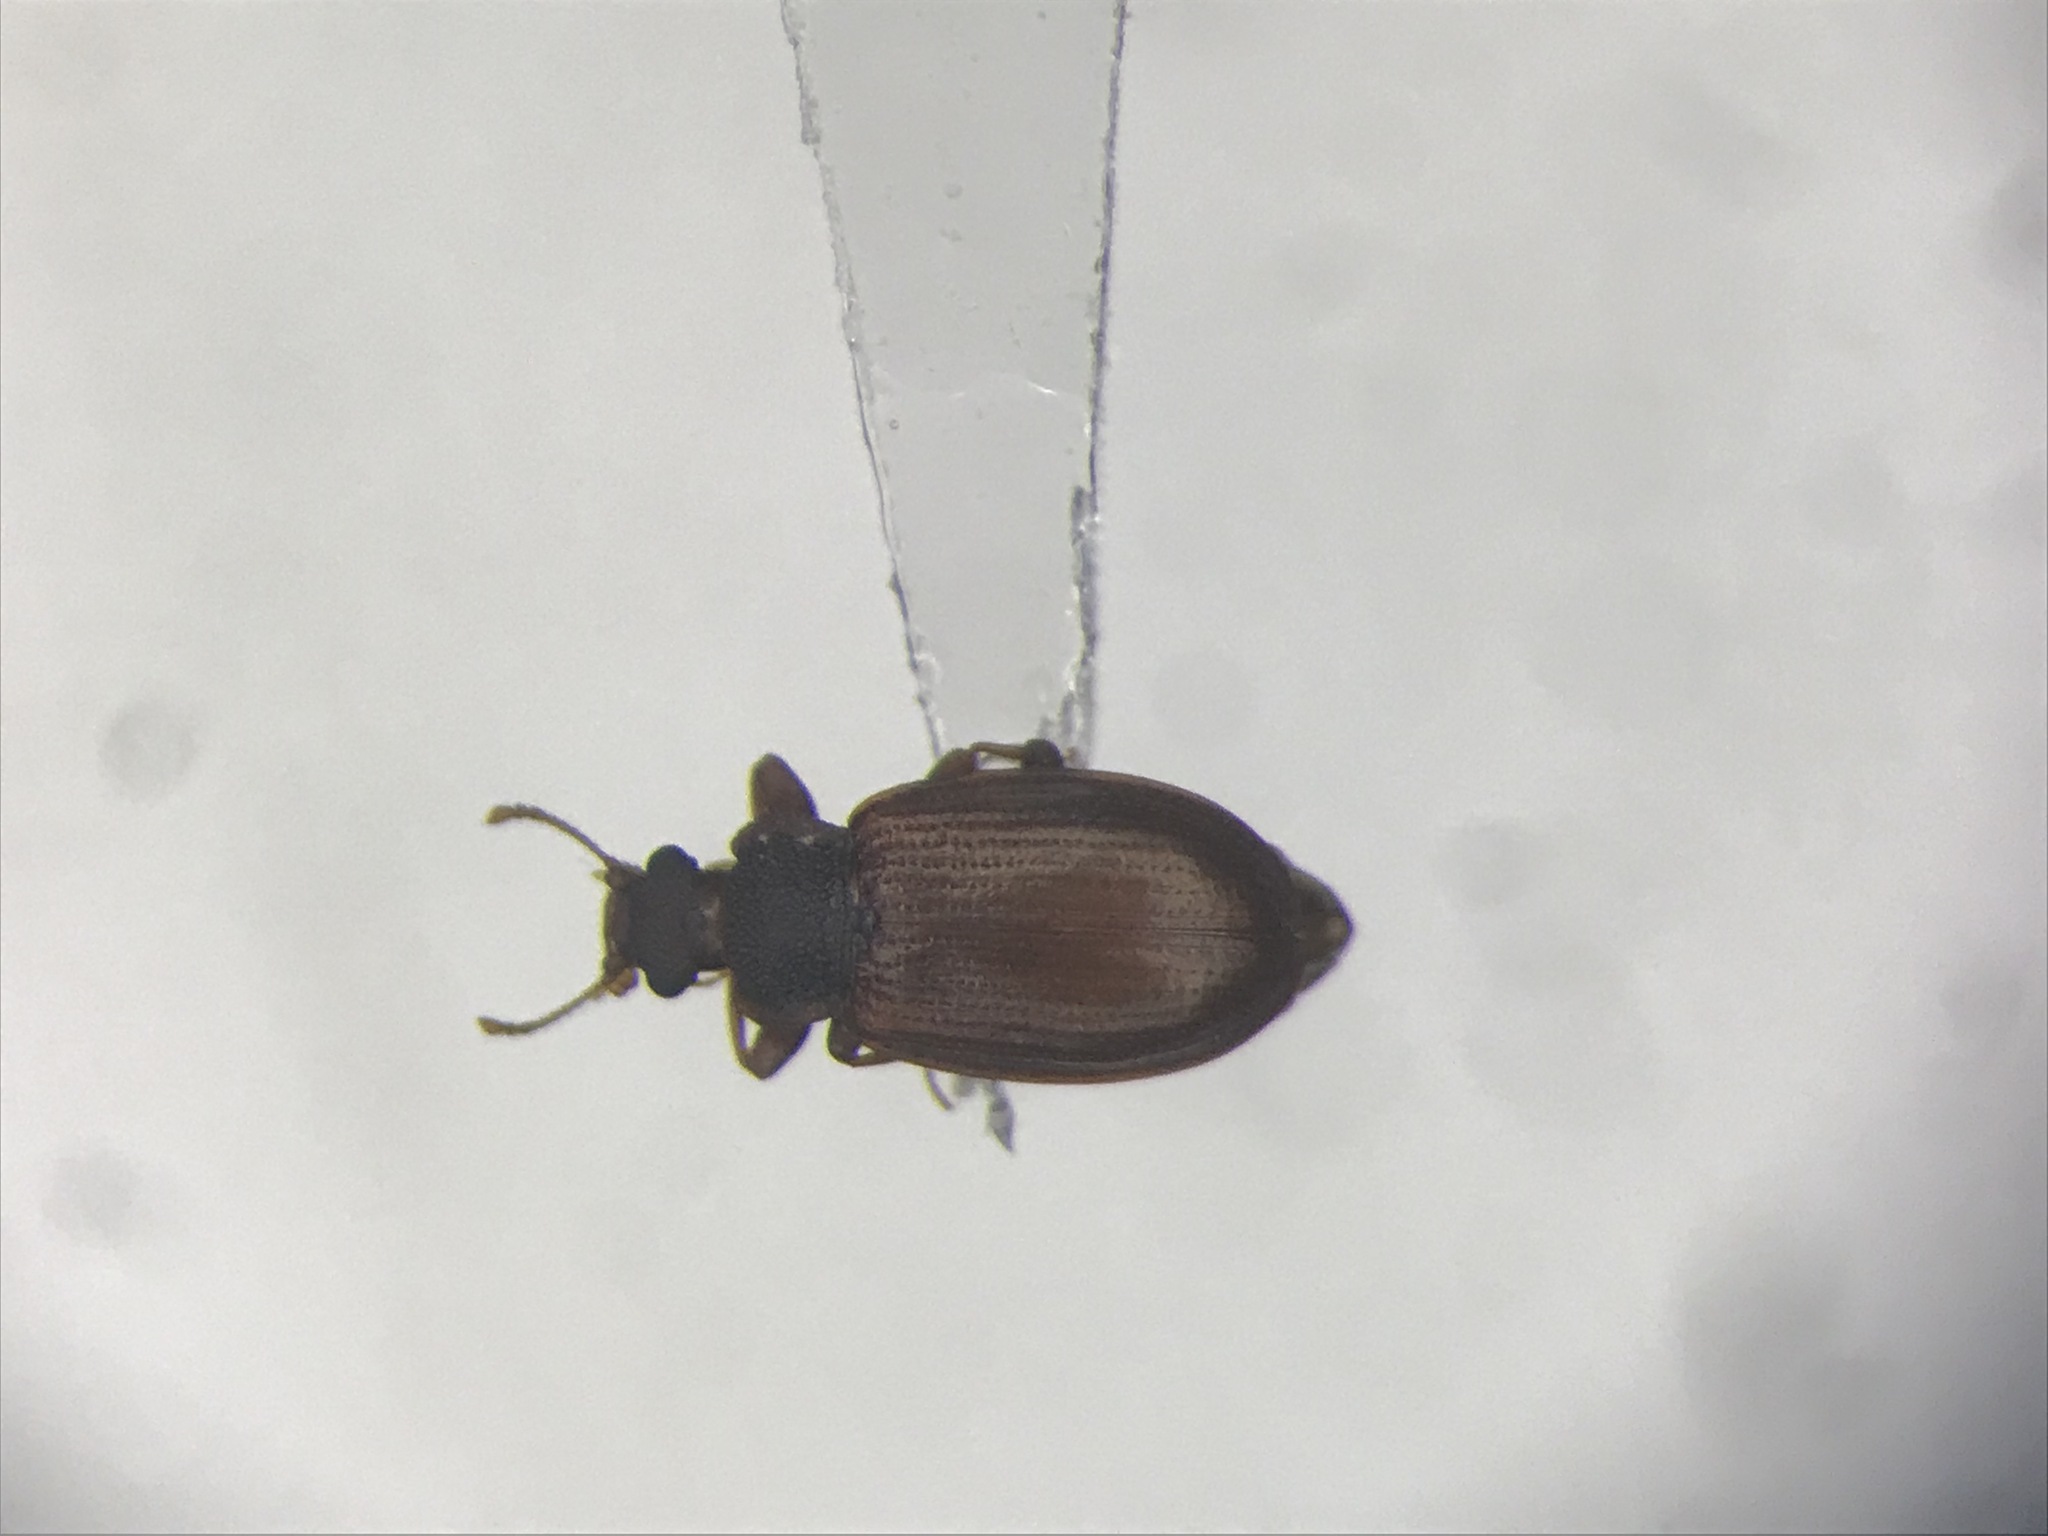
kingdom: Animalia
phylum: Arthropoda
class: Insecta
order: Coleoptera
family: Latridiidae
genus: Enicmus
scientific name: Enicmus tenuicornis
